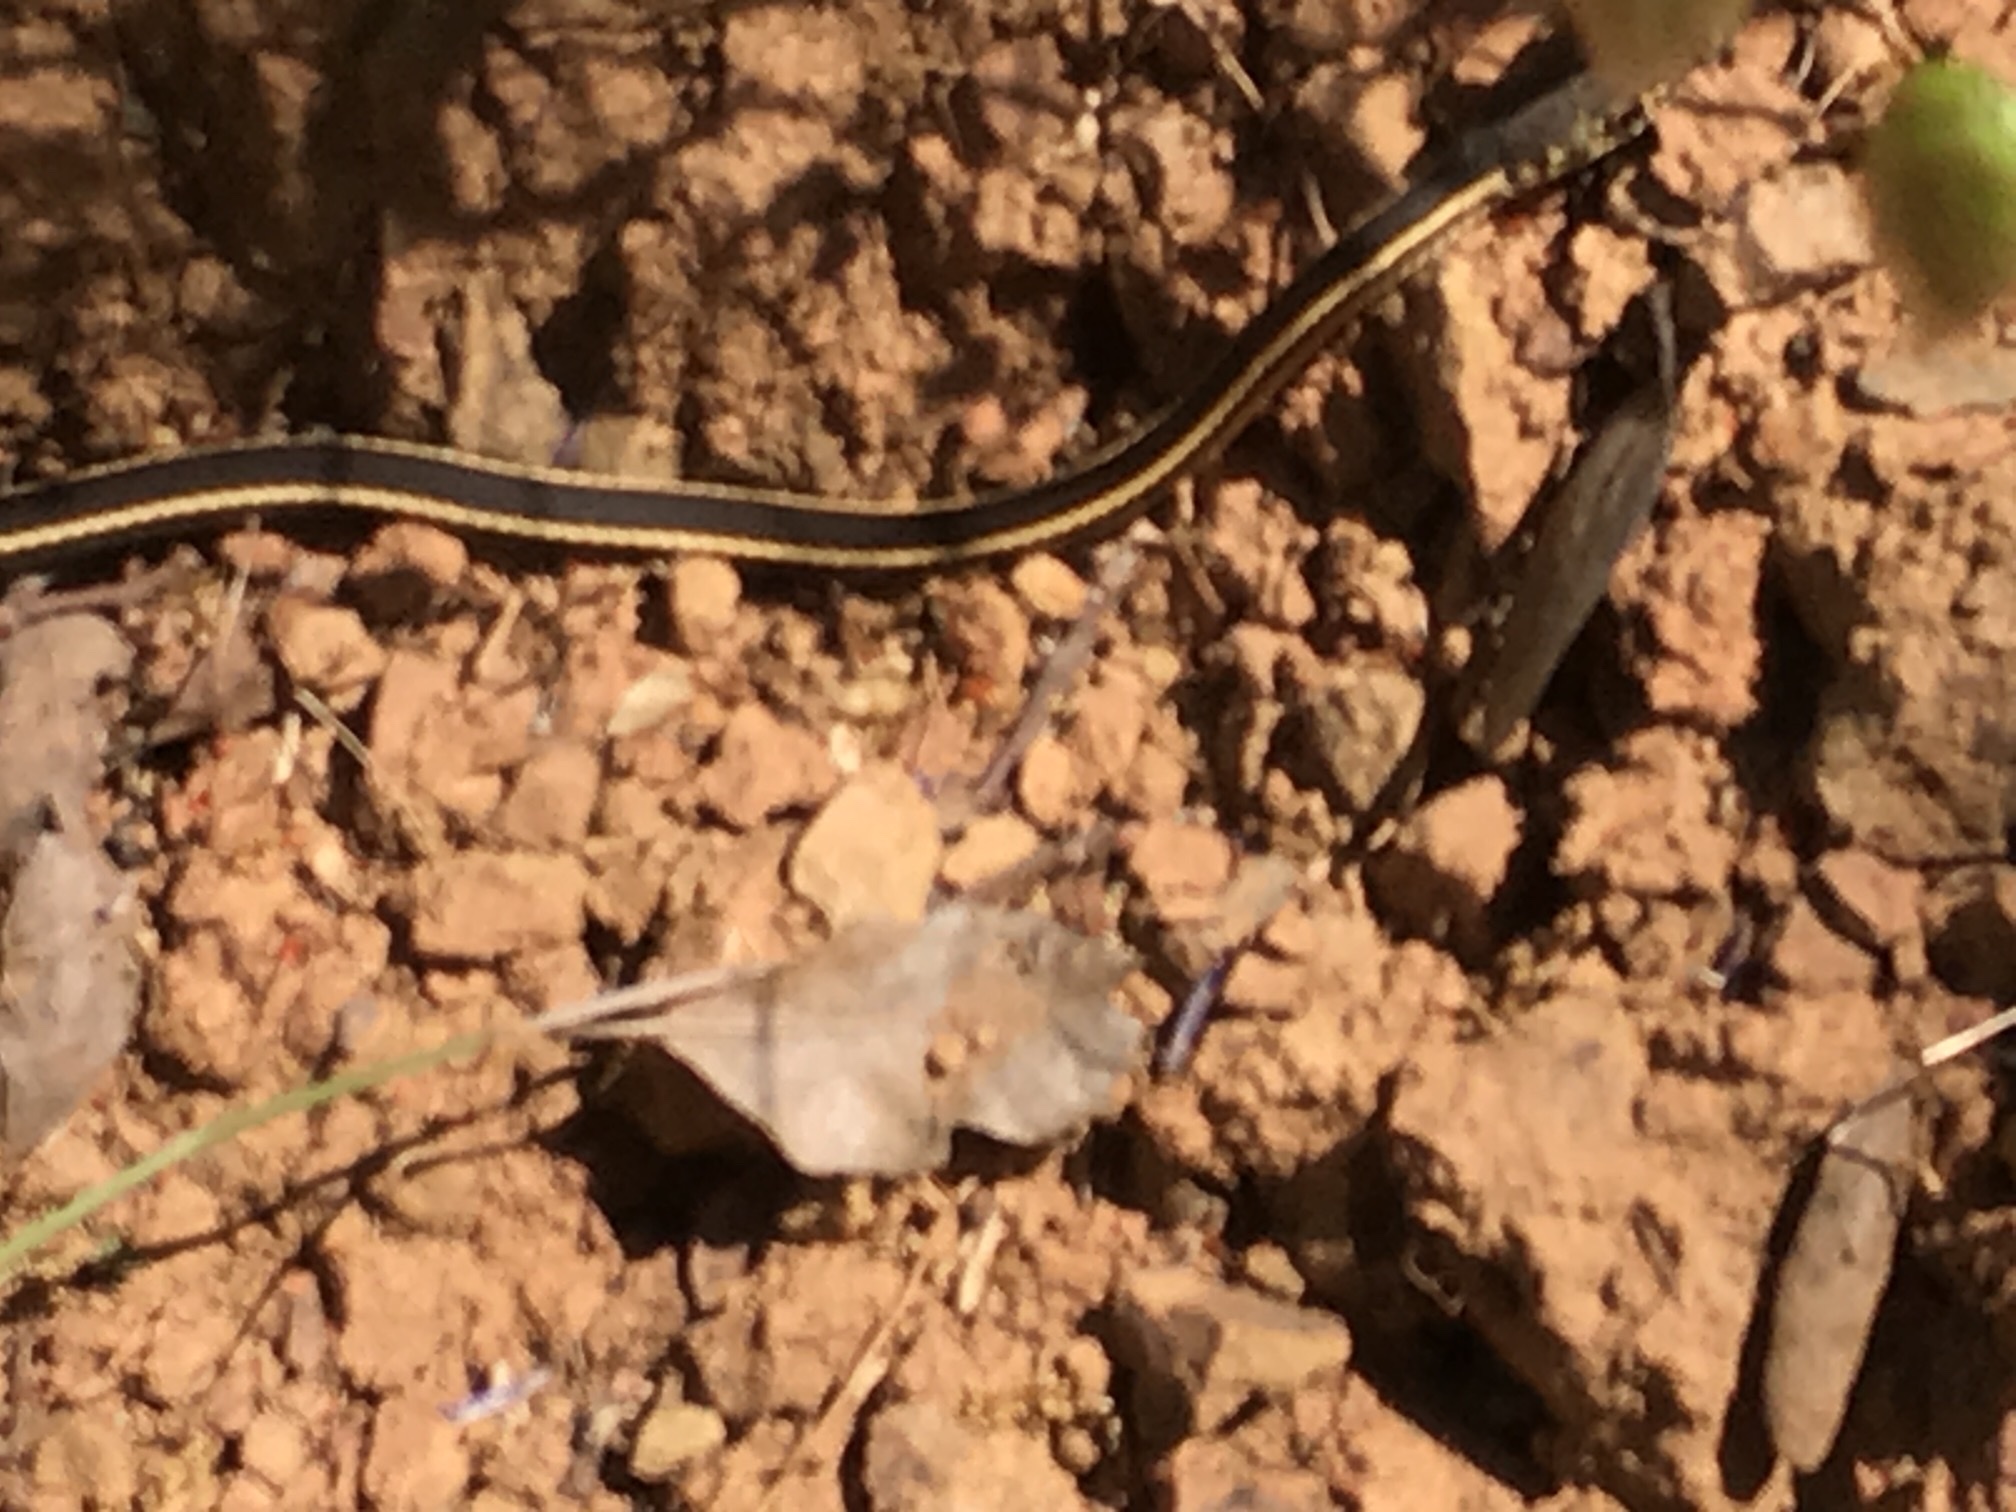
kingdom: Animalia
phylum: Chordata
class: Squamata
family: Colubridae
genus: Masticophis
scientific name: Masticophis lateralis
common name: Striped racer
